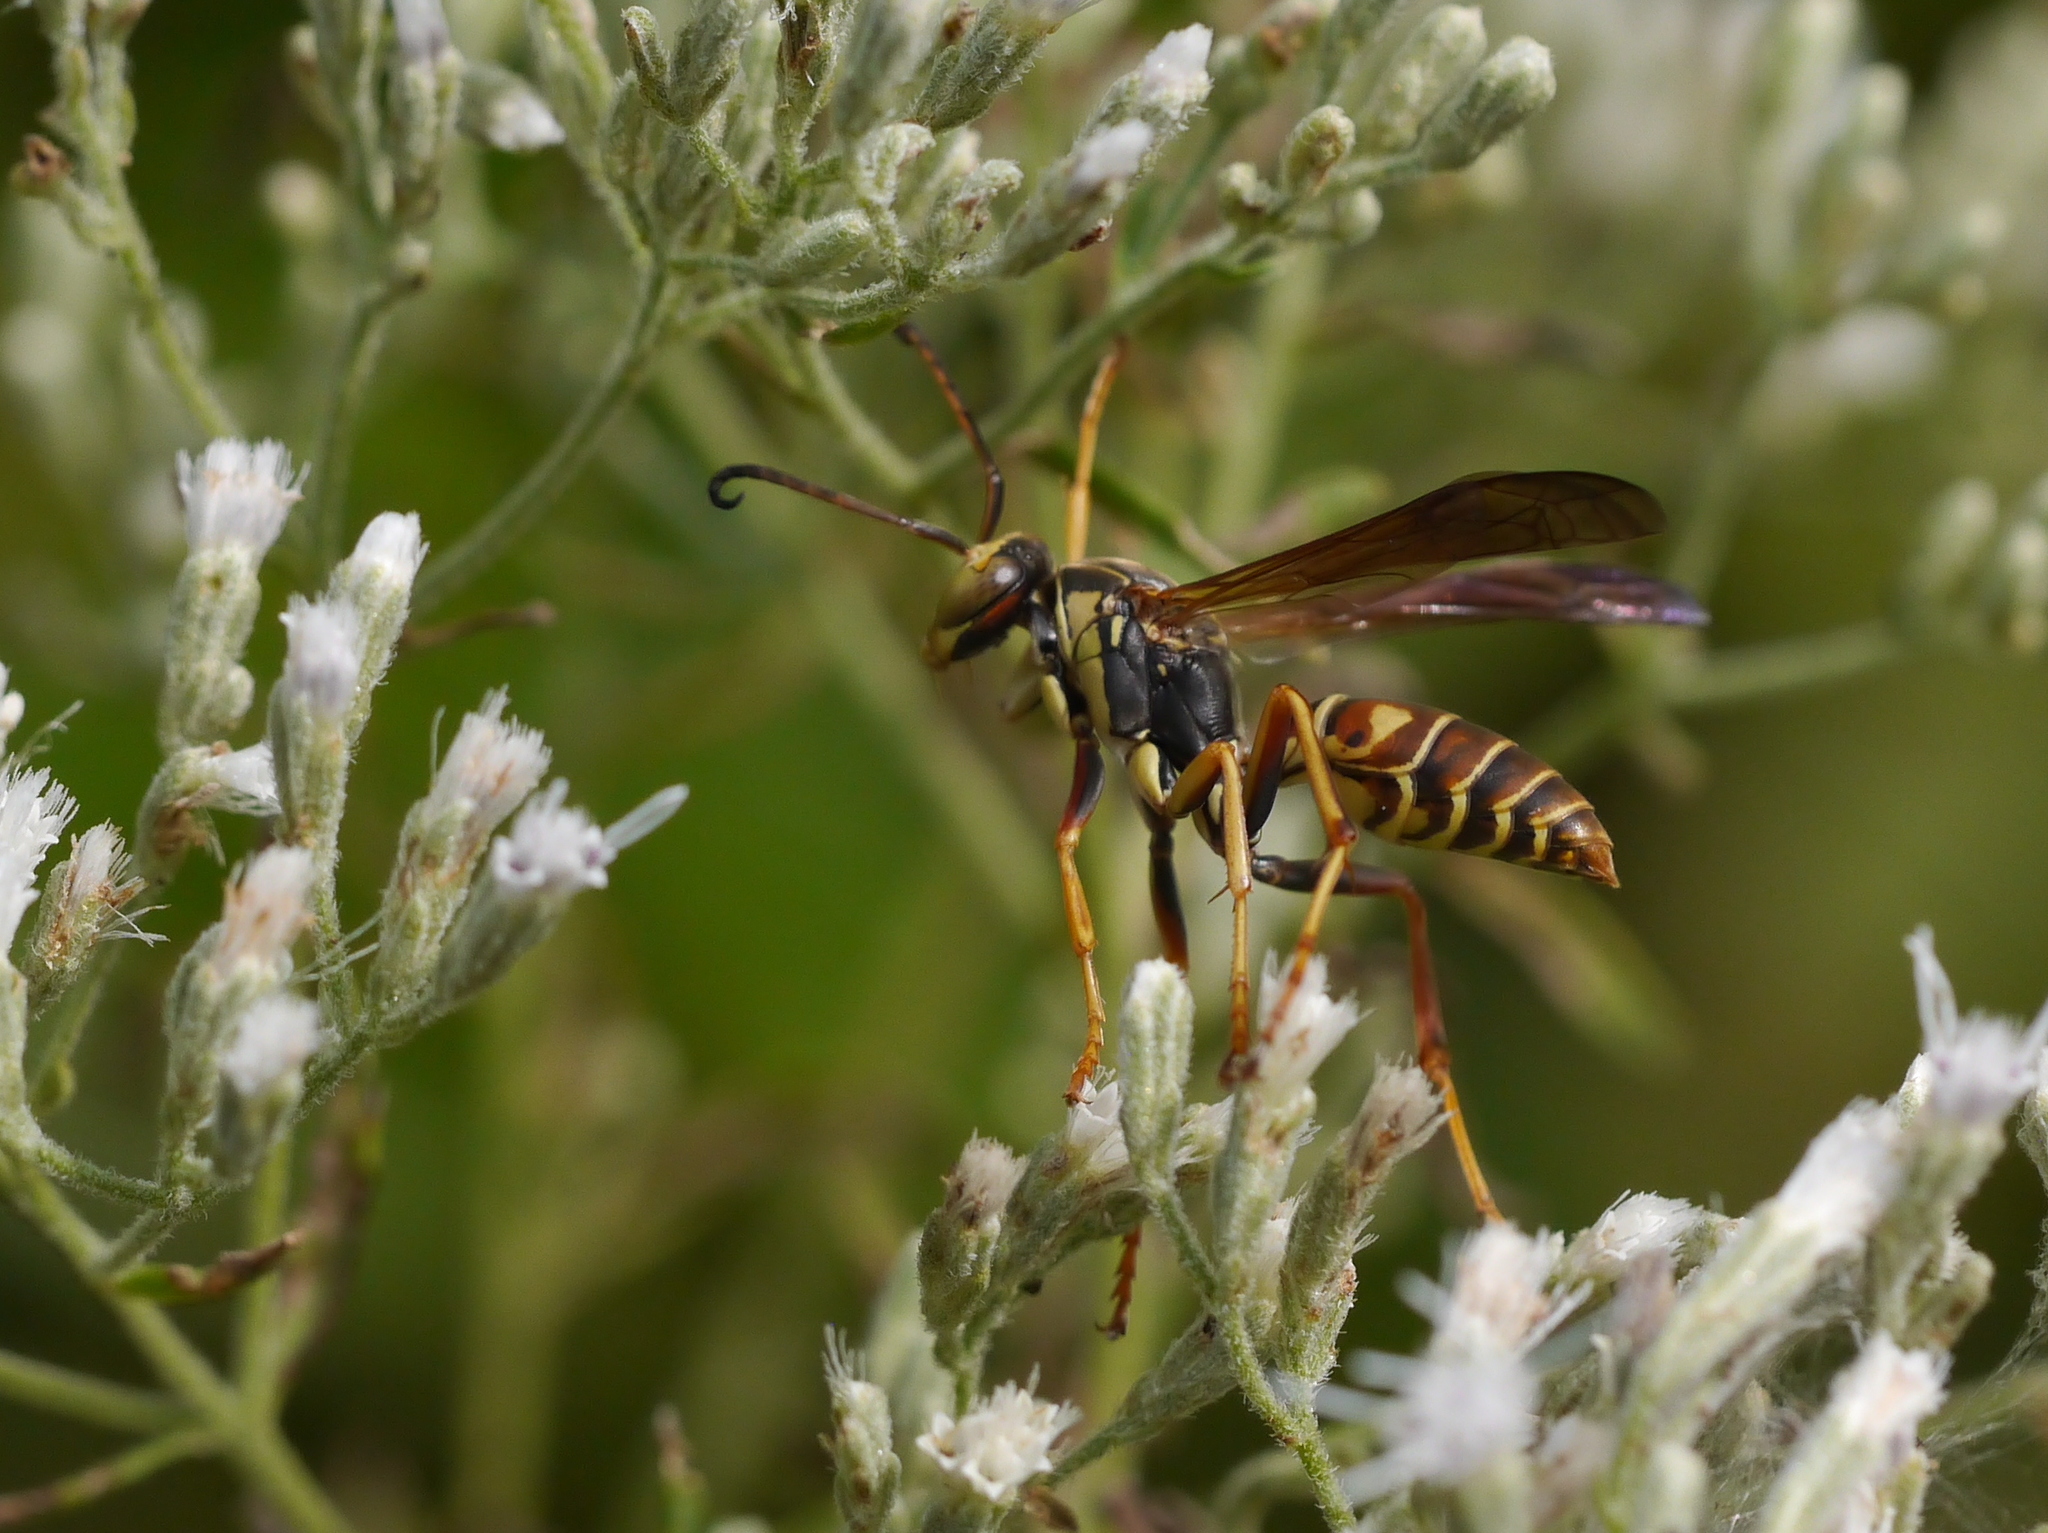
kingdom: Animalia
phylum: Arthropoda
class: Insecta
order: Hymenoptera
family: Eumenidae
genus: Polistes
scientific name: Polistes fuscatus
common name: Dark paper wasp
